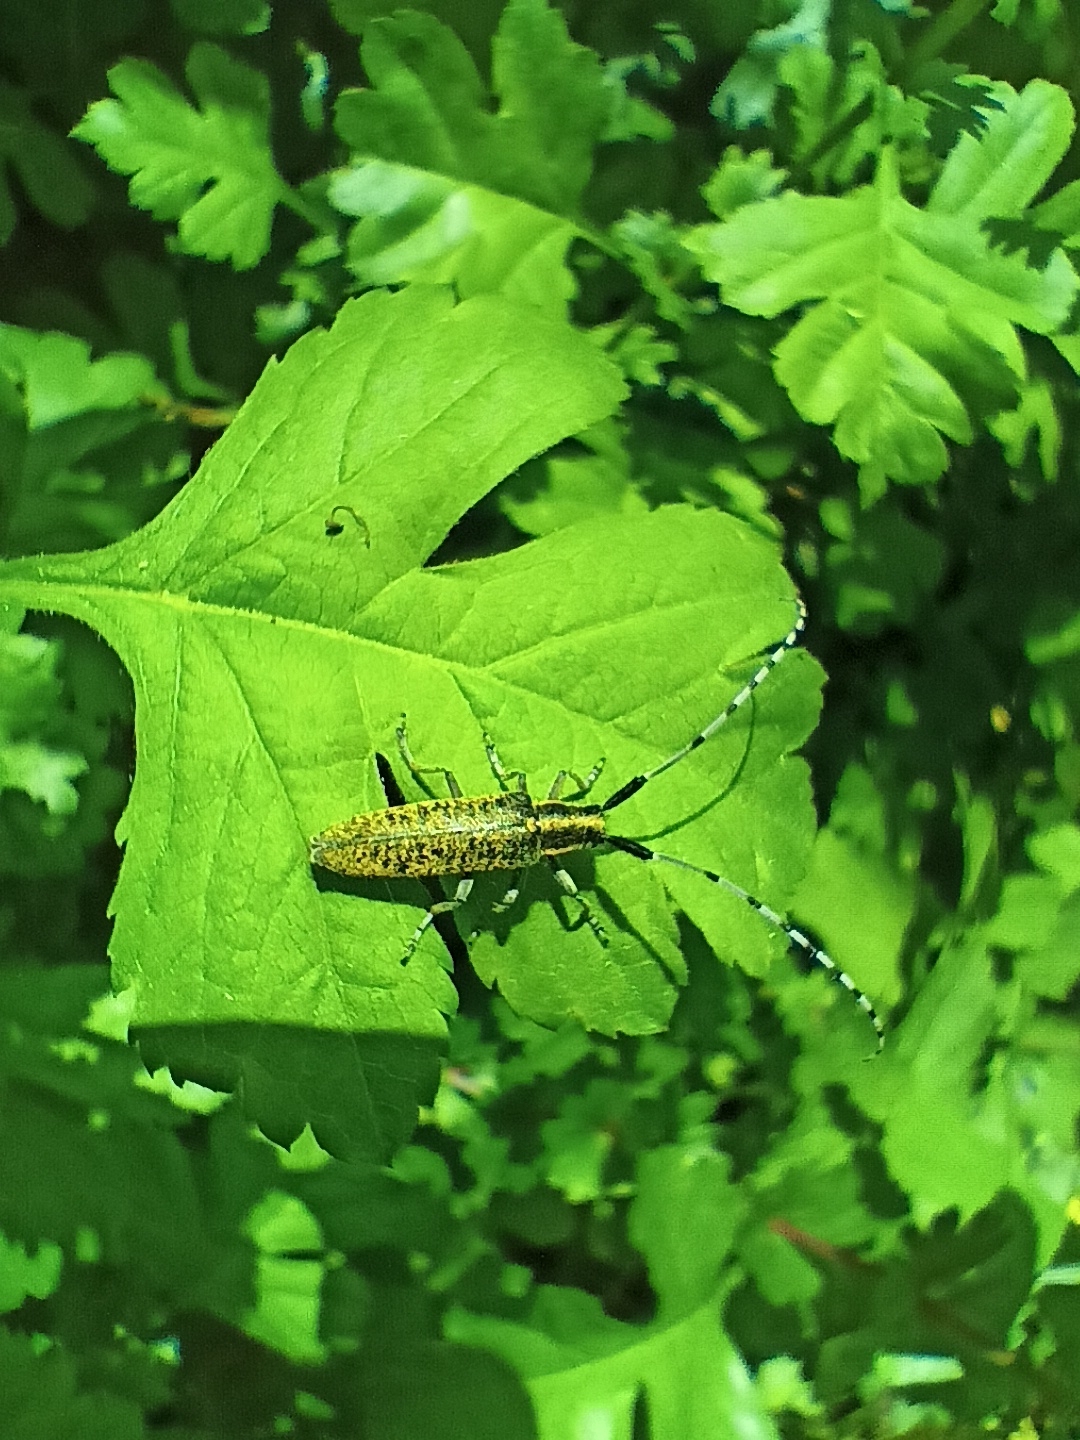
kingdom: Animalia
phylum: Arthropoda
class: Insecta
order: Coleoptera
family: Cerambycidae
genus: Agapanthia
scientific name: Agapanthia villosoviridescens
